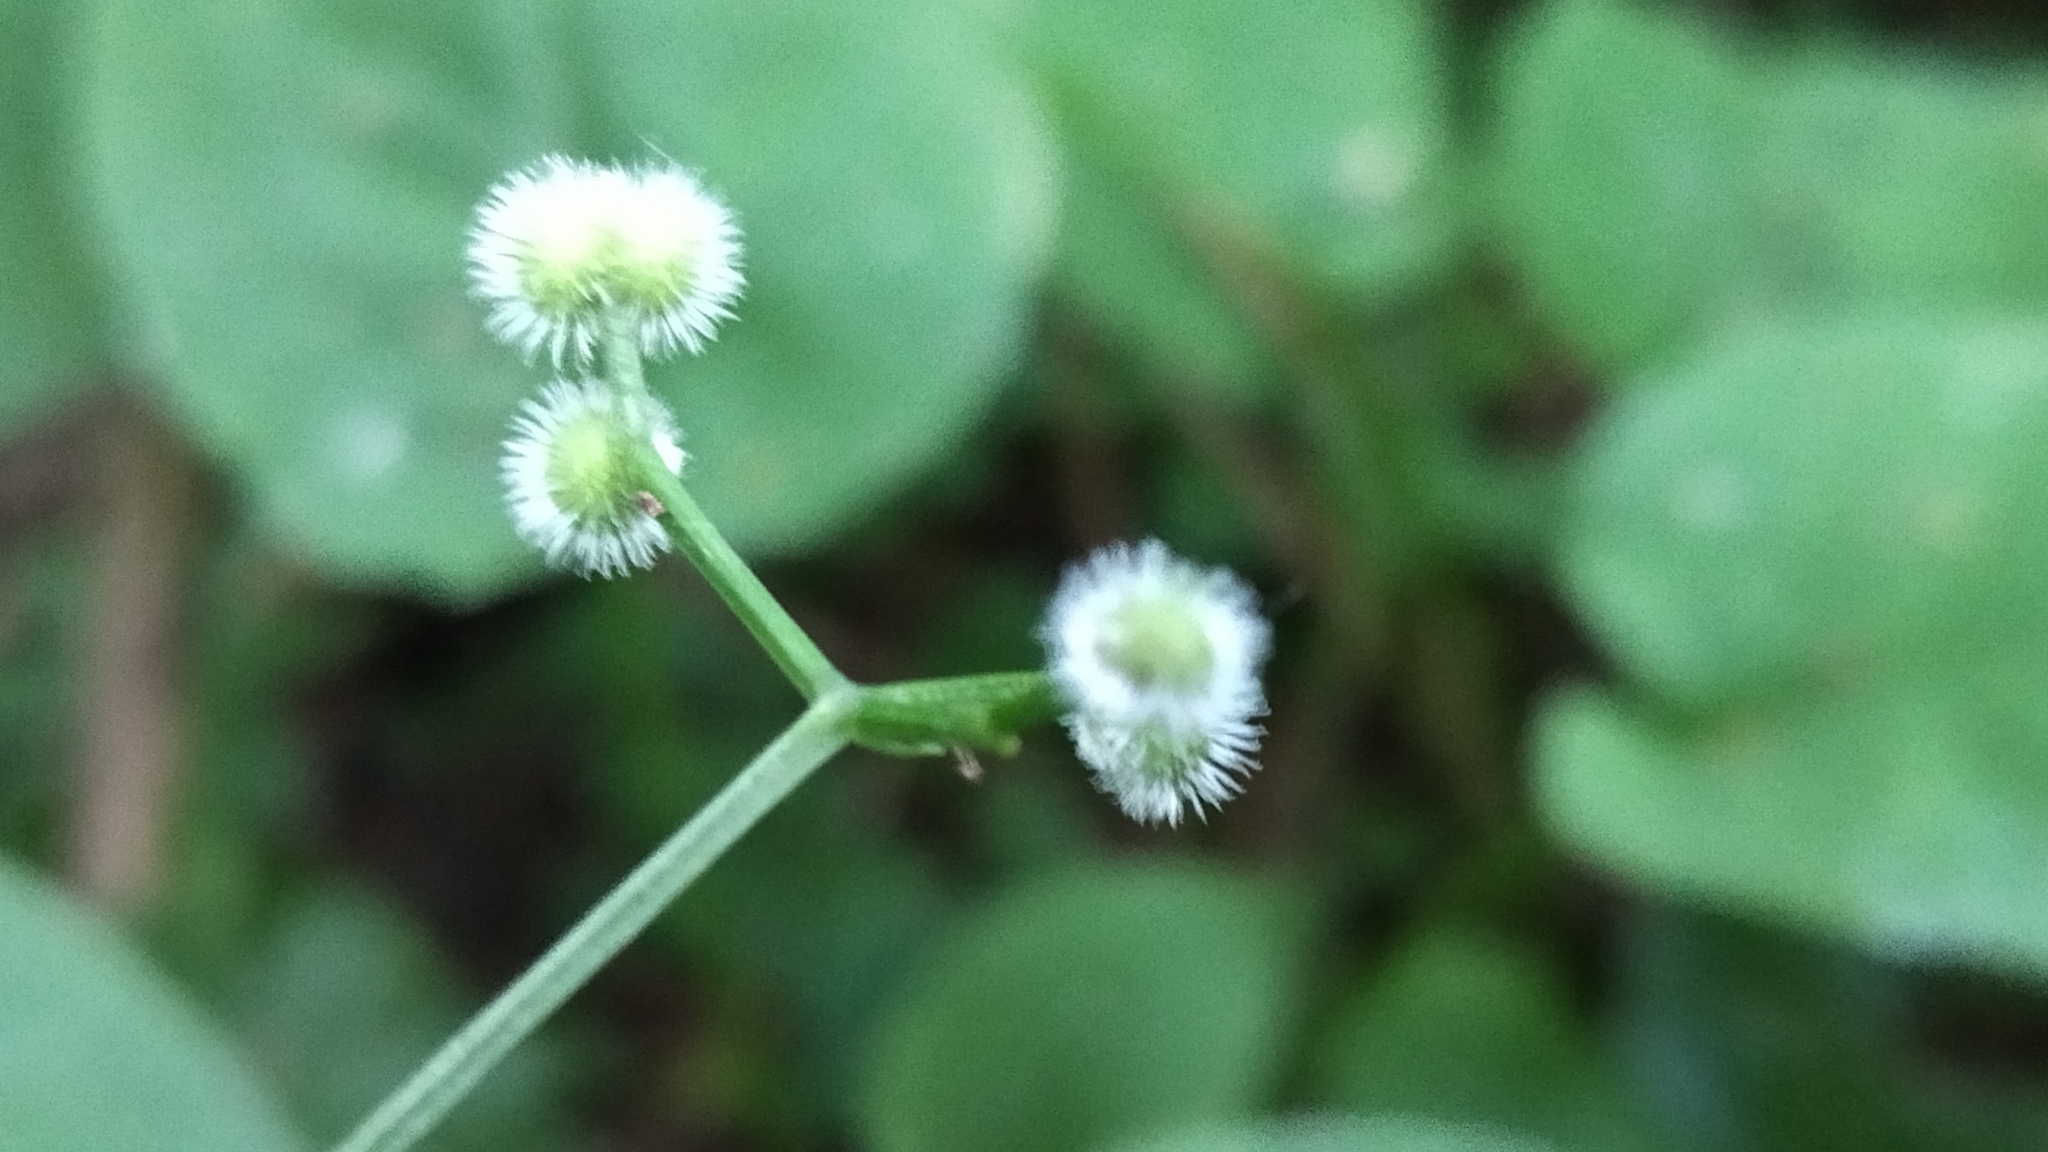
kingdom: Plantae
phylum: Tracheophyta
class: Magnoliopsida
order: Gentianales
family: Rubiaceae
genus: Galium
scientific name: Galium odoratum
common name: Sweet woodruff
